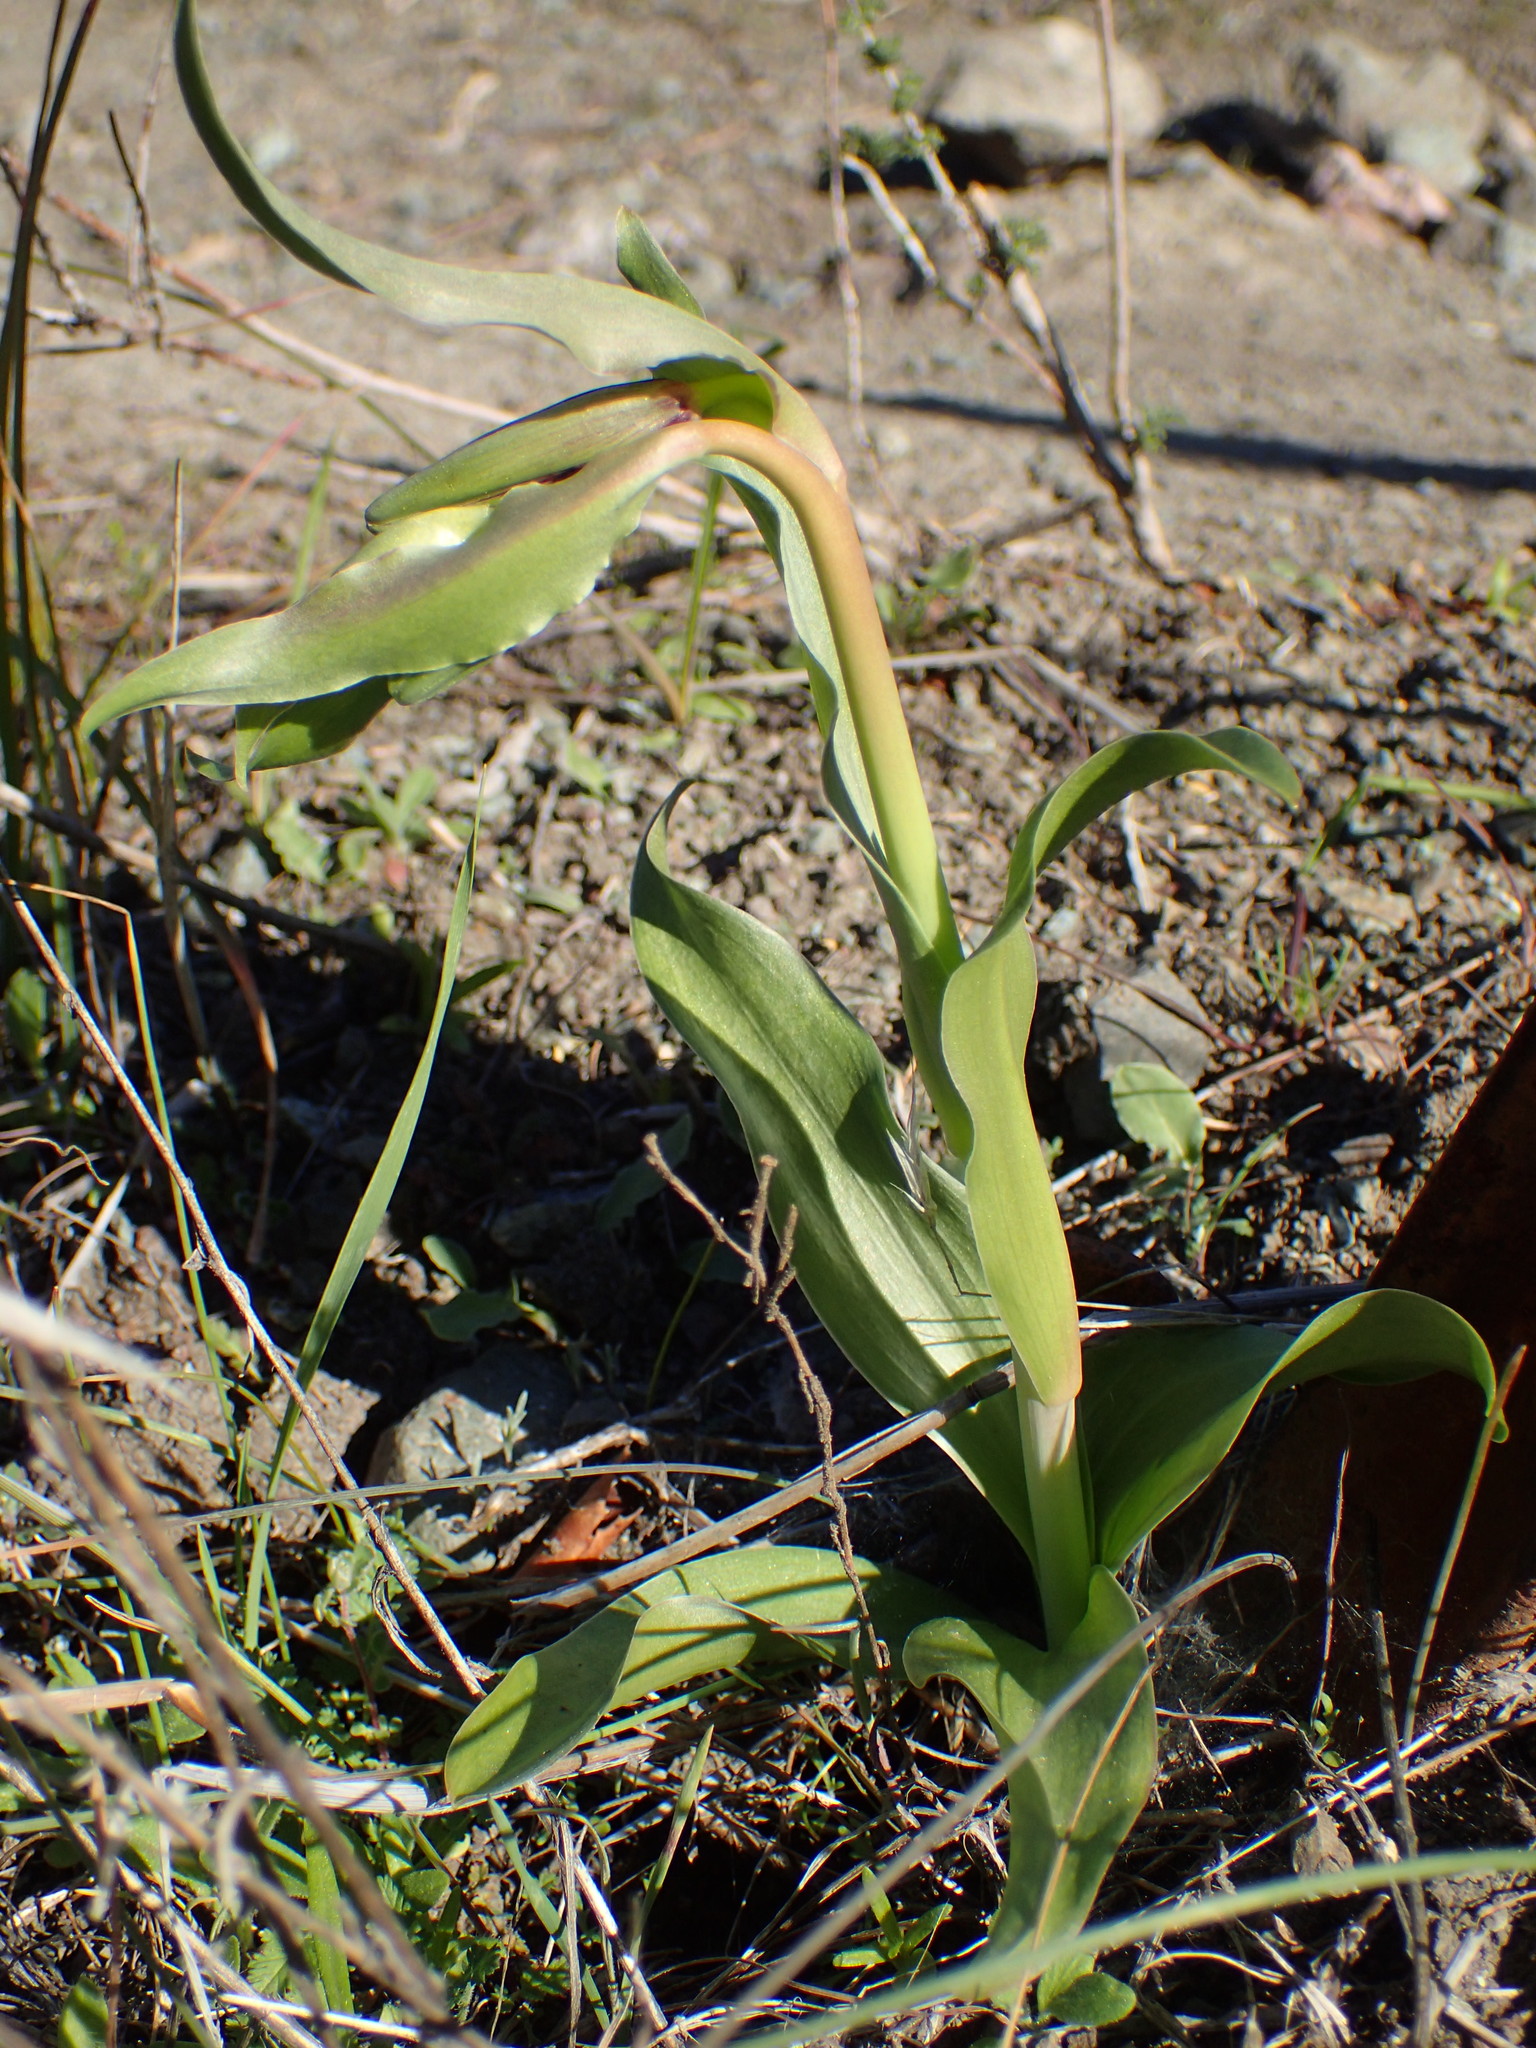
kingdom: Plantae
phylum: Tracheophyta
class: Liliopsida
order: Liliales
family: Liliaceae
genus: Fritillaria
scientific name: Fritillaria biflora
